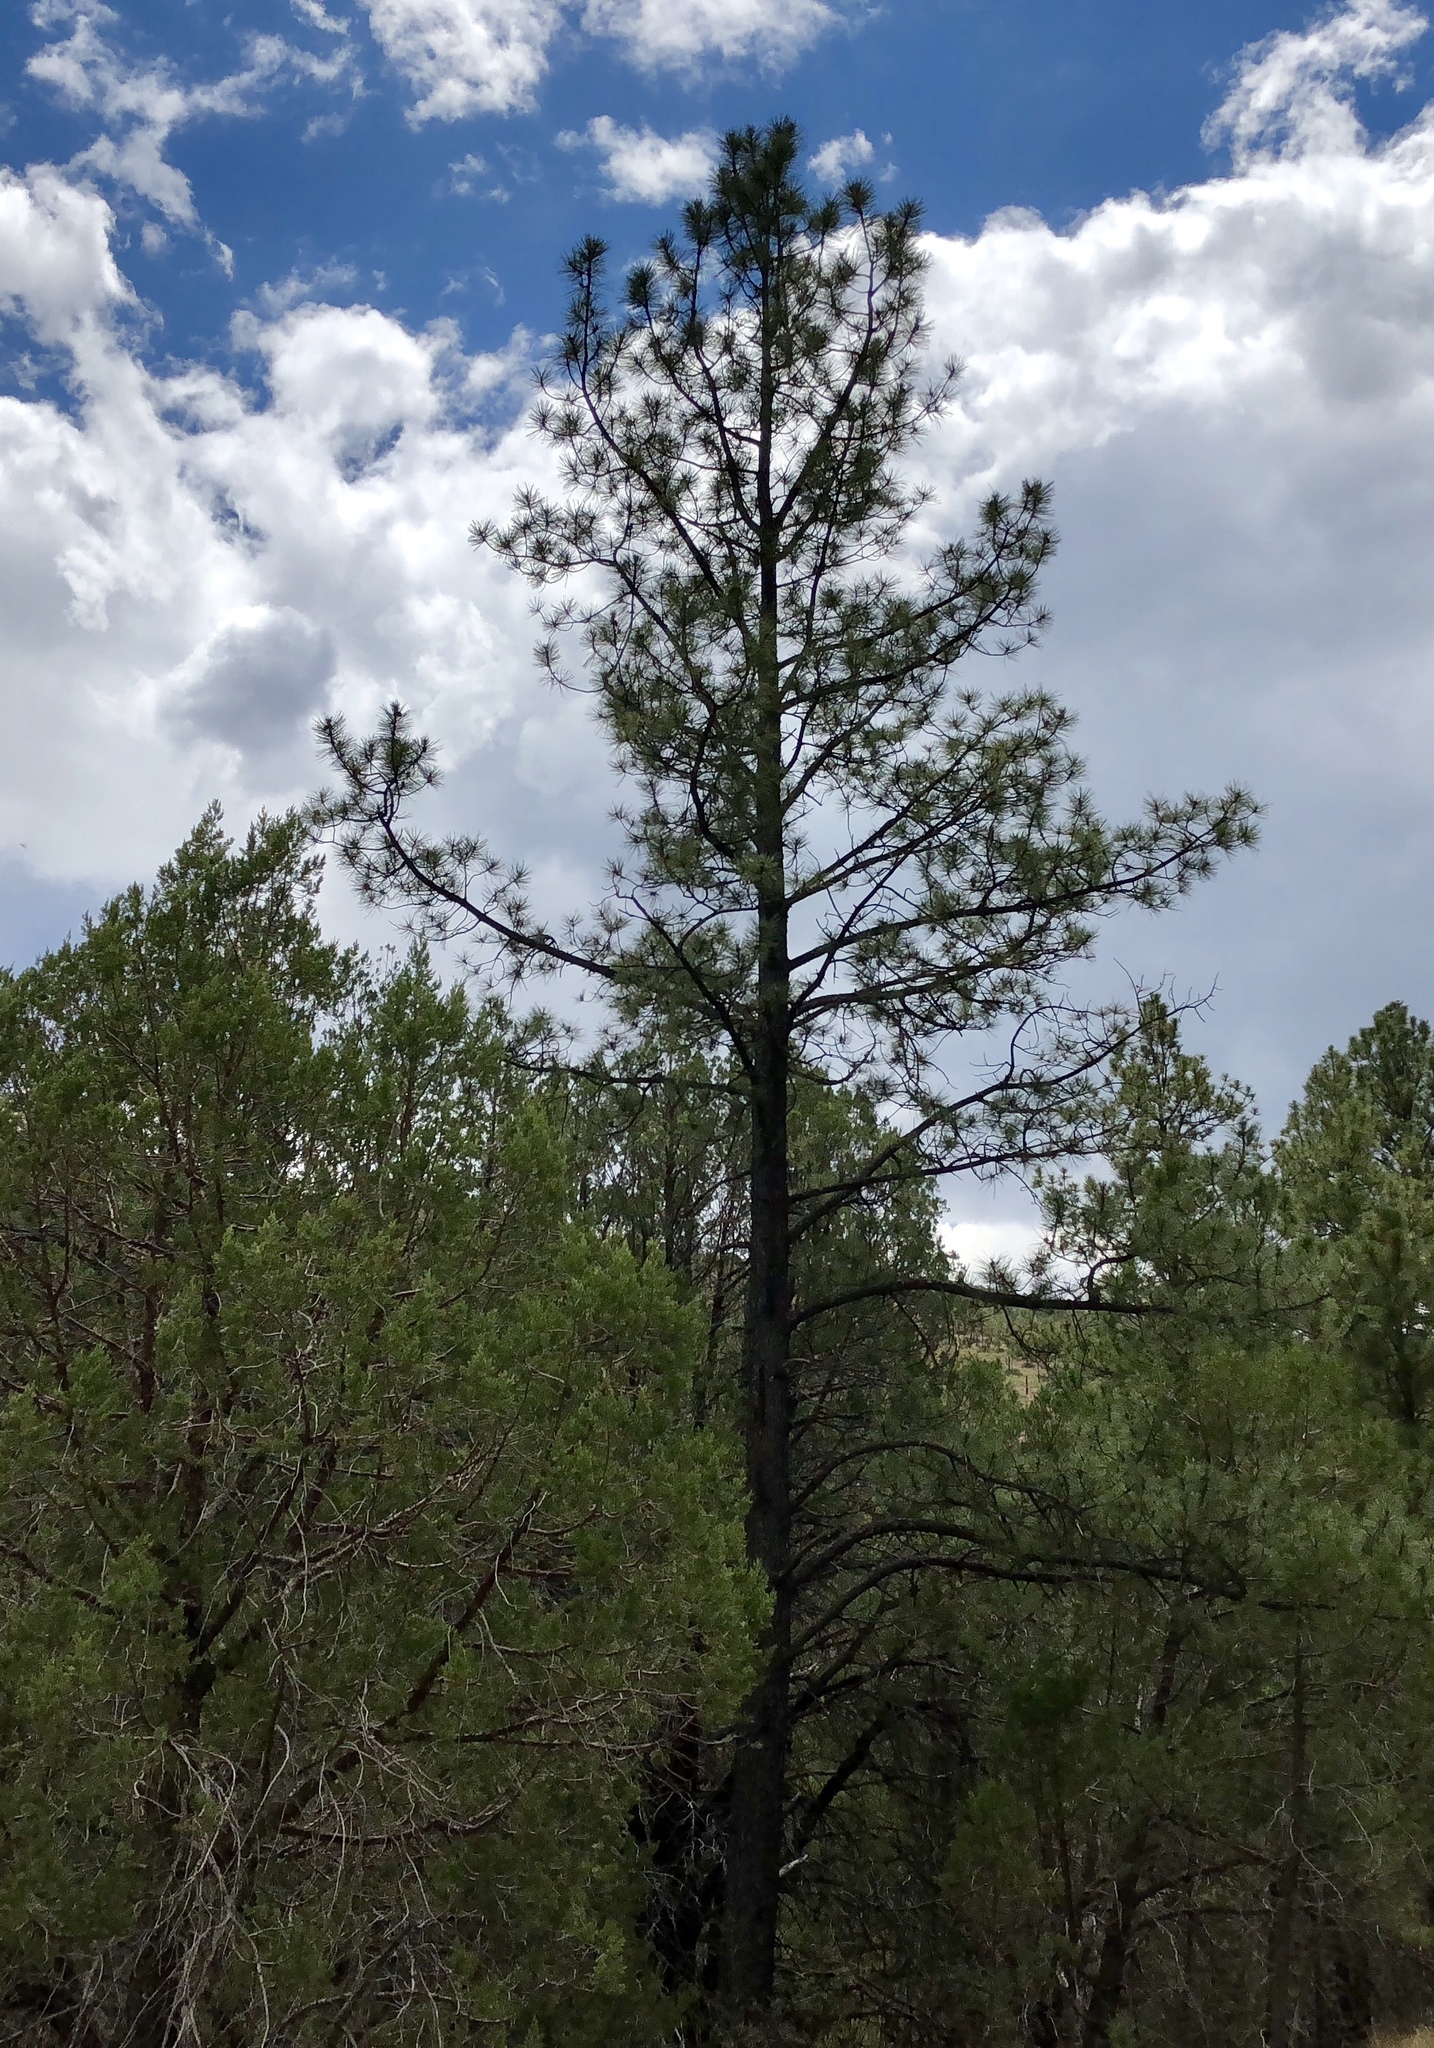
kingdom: Plantae
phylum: Tracheophyta
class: Pinopsida
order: Pinales
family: Pinaceae
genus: Pinus
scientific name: Pinus ponderosa
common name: Western yellow-pine
